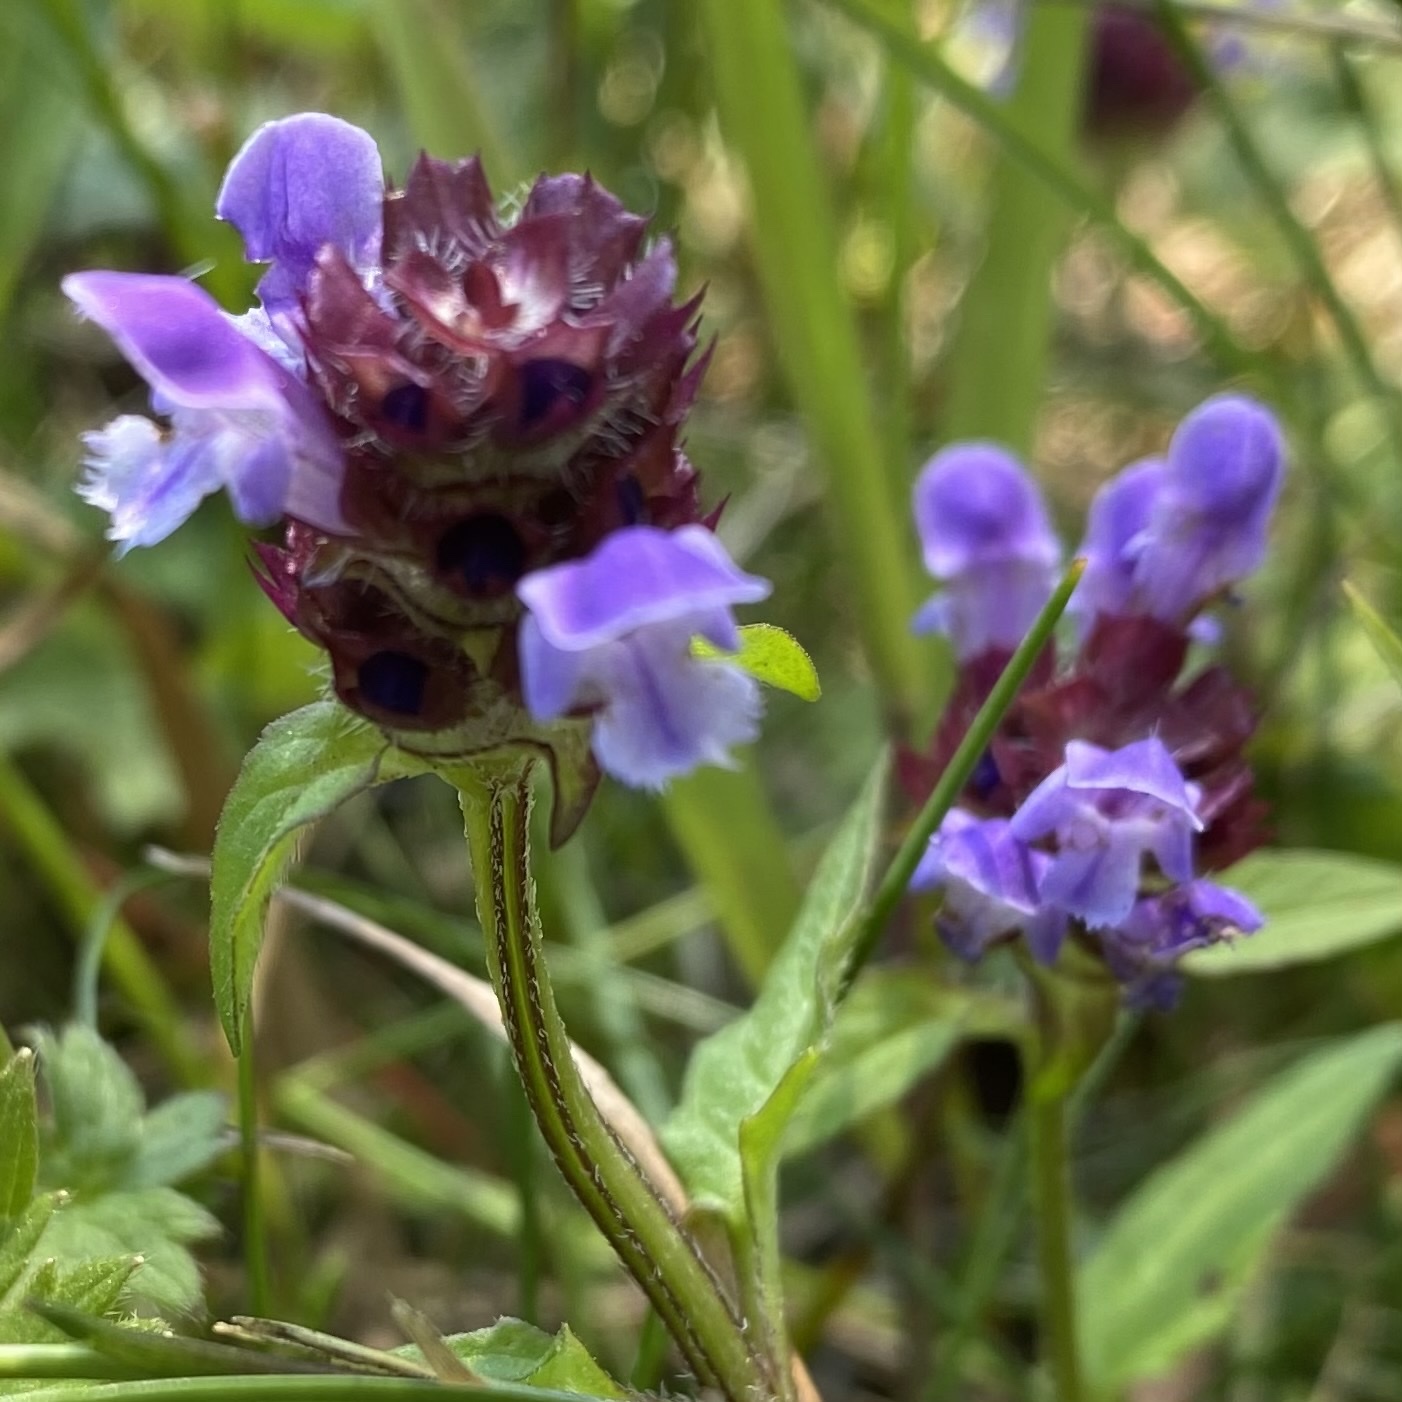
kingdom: Plantae
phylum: Tracheophyta
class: Magnoliopsida
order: Lamiales
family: Lamiaceae
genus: Prunella
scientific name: Prunella vulgaris
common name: Heal-all
